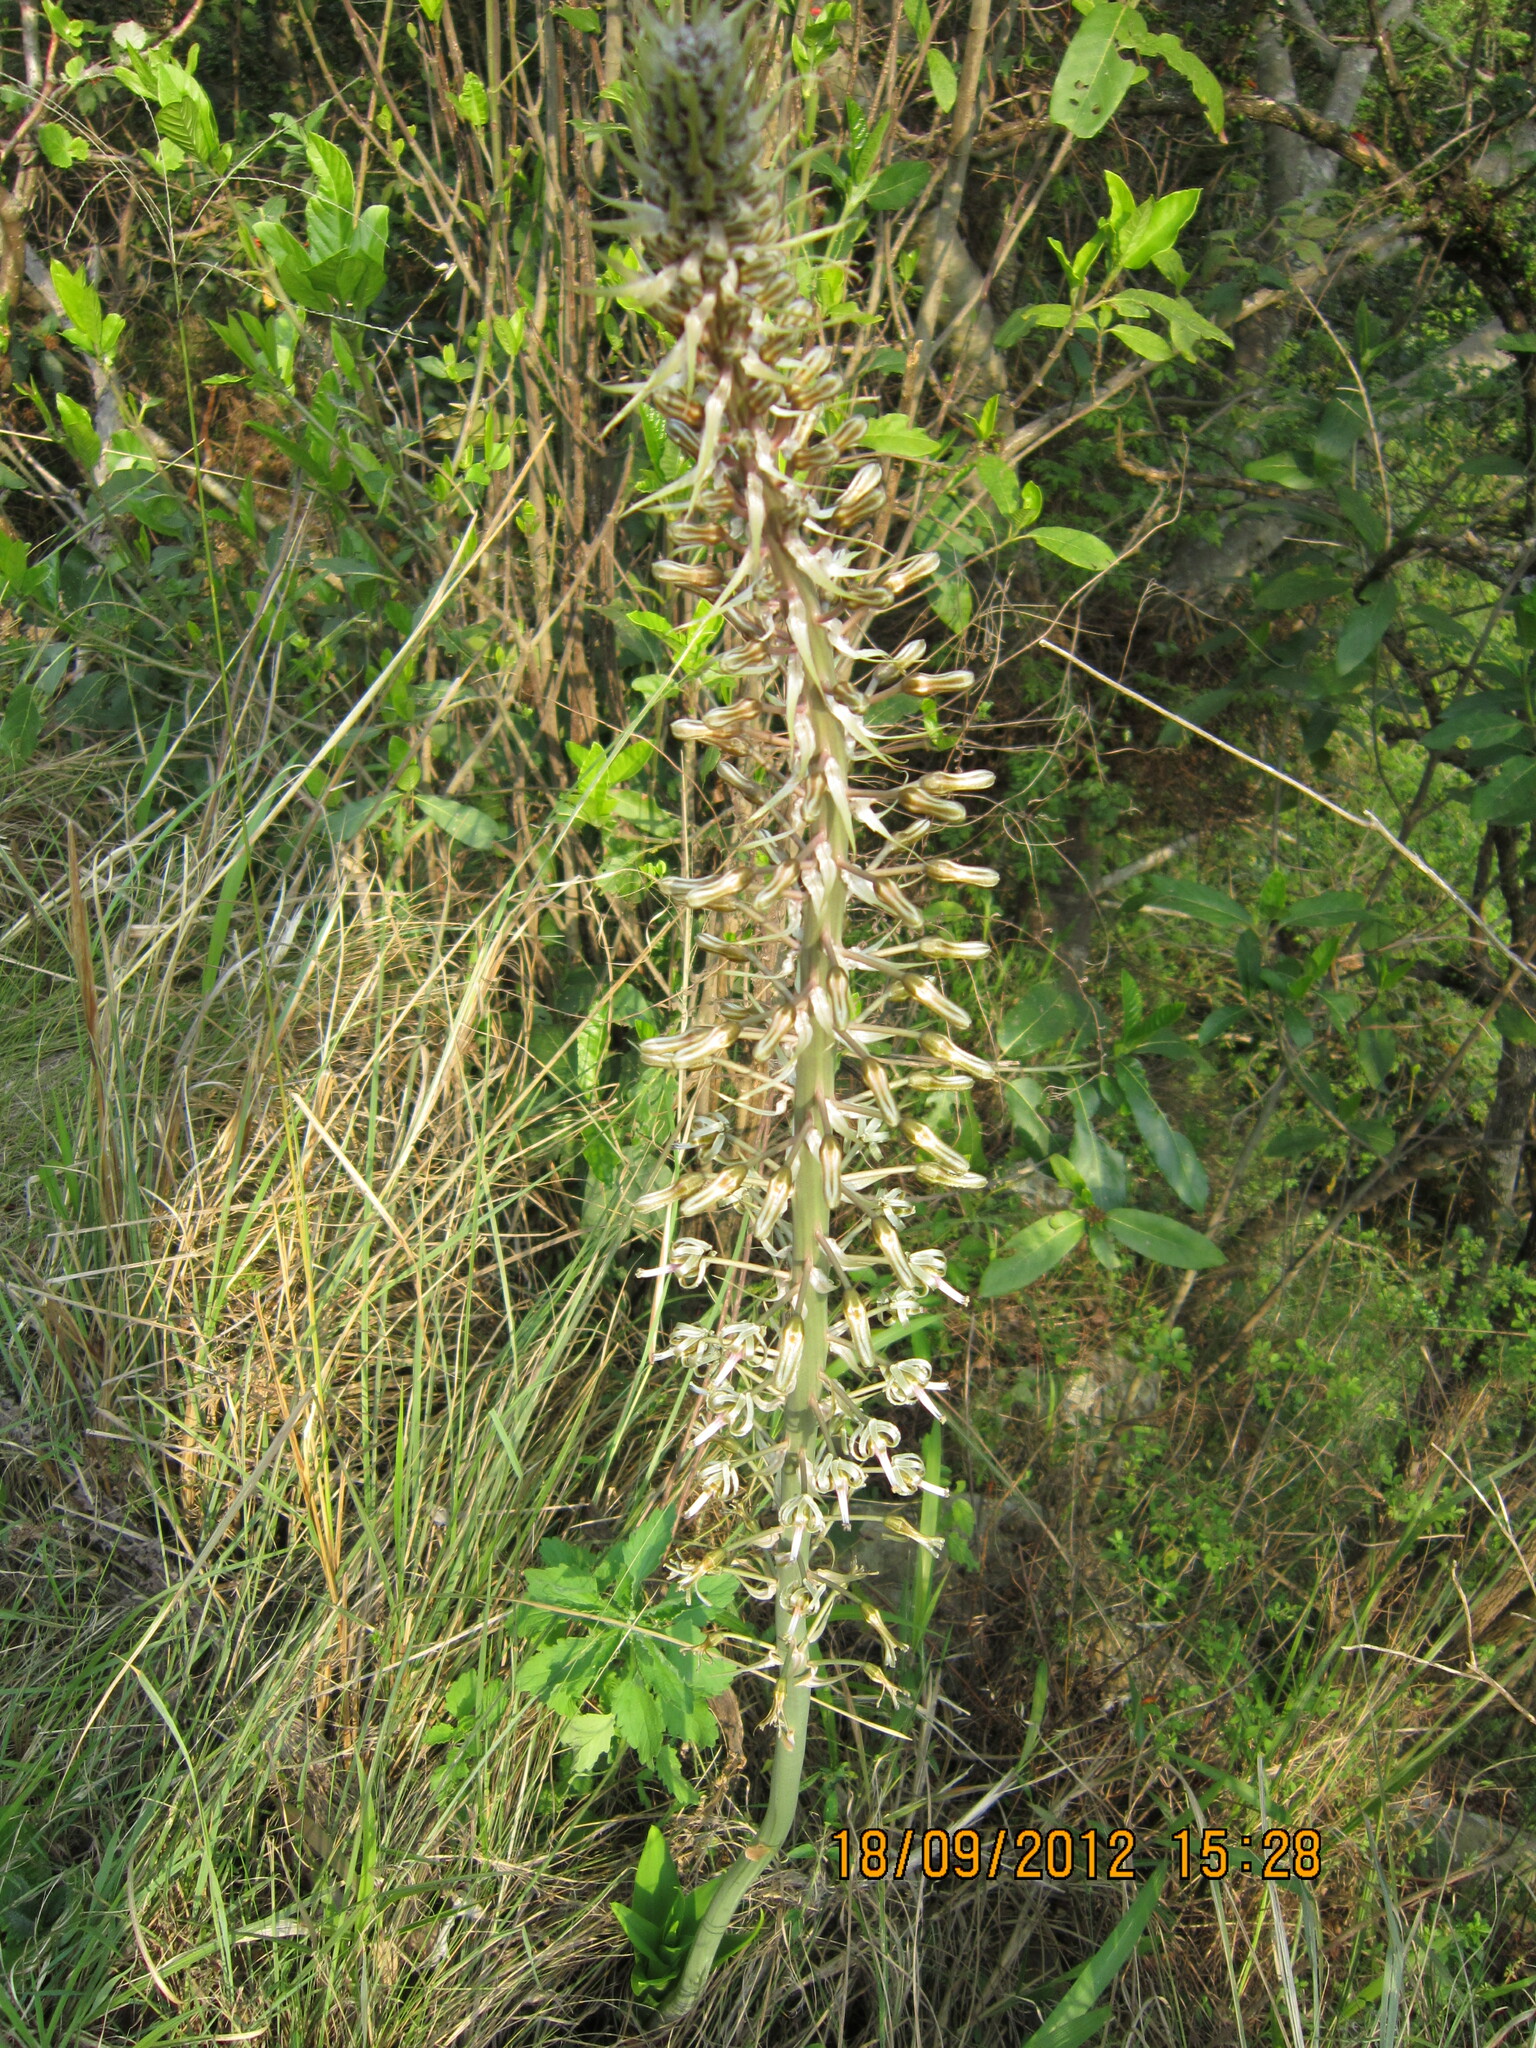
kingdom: Plantae
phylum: Tracheophyta
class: Liliopsida
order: Asparagales
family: Asparagaceae
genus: Drimia
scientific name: Drimia elata
